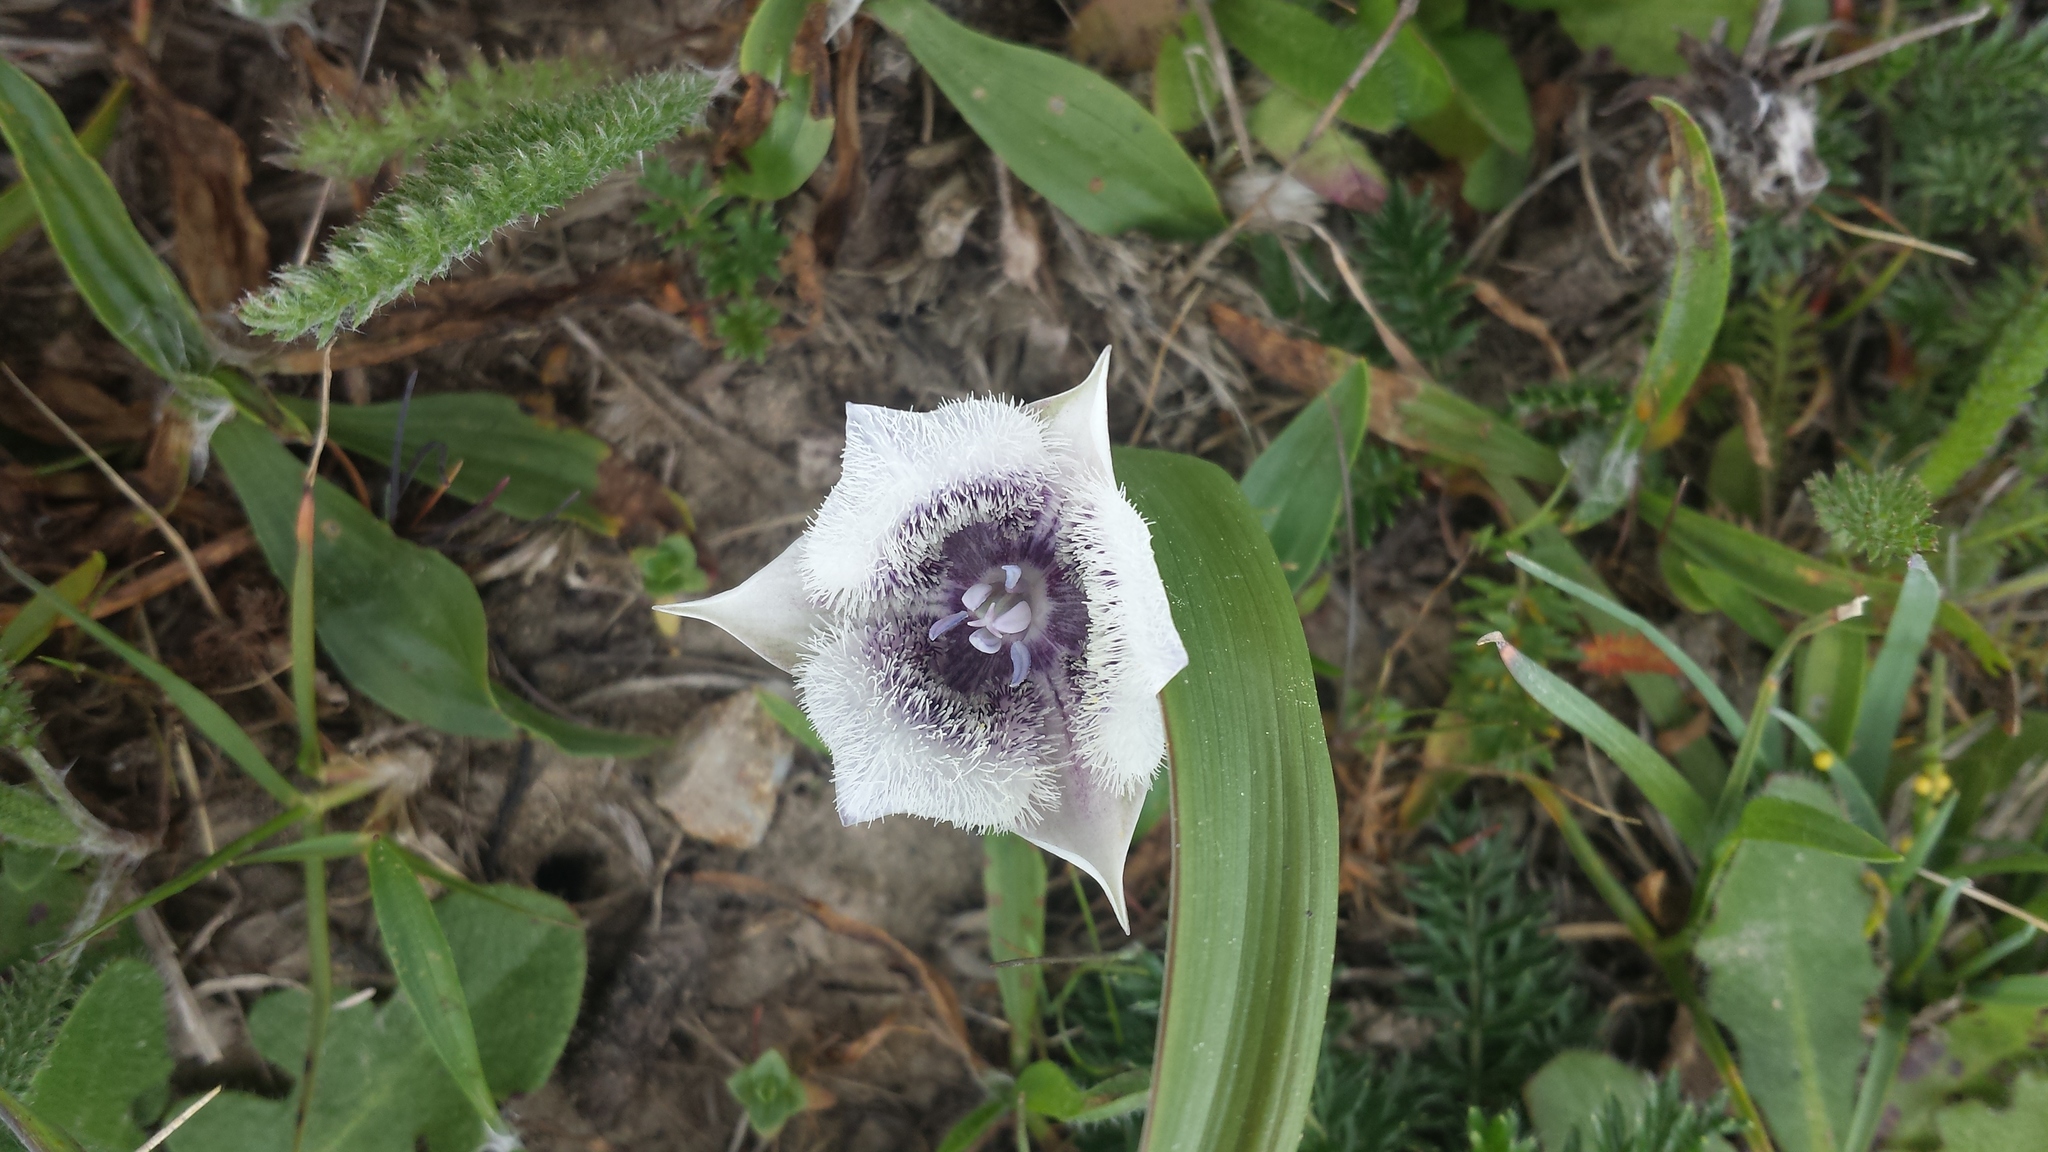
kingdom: Plantae
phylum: Tracheophyta
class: Liliopsida
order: Liliales
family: Liliaceae
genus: Calochortus
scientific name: Calochortus tolmiei
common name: Pussy-ears
